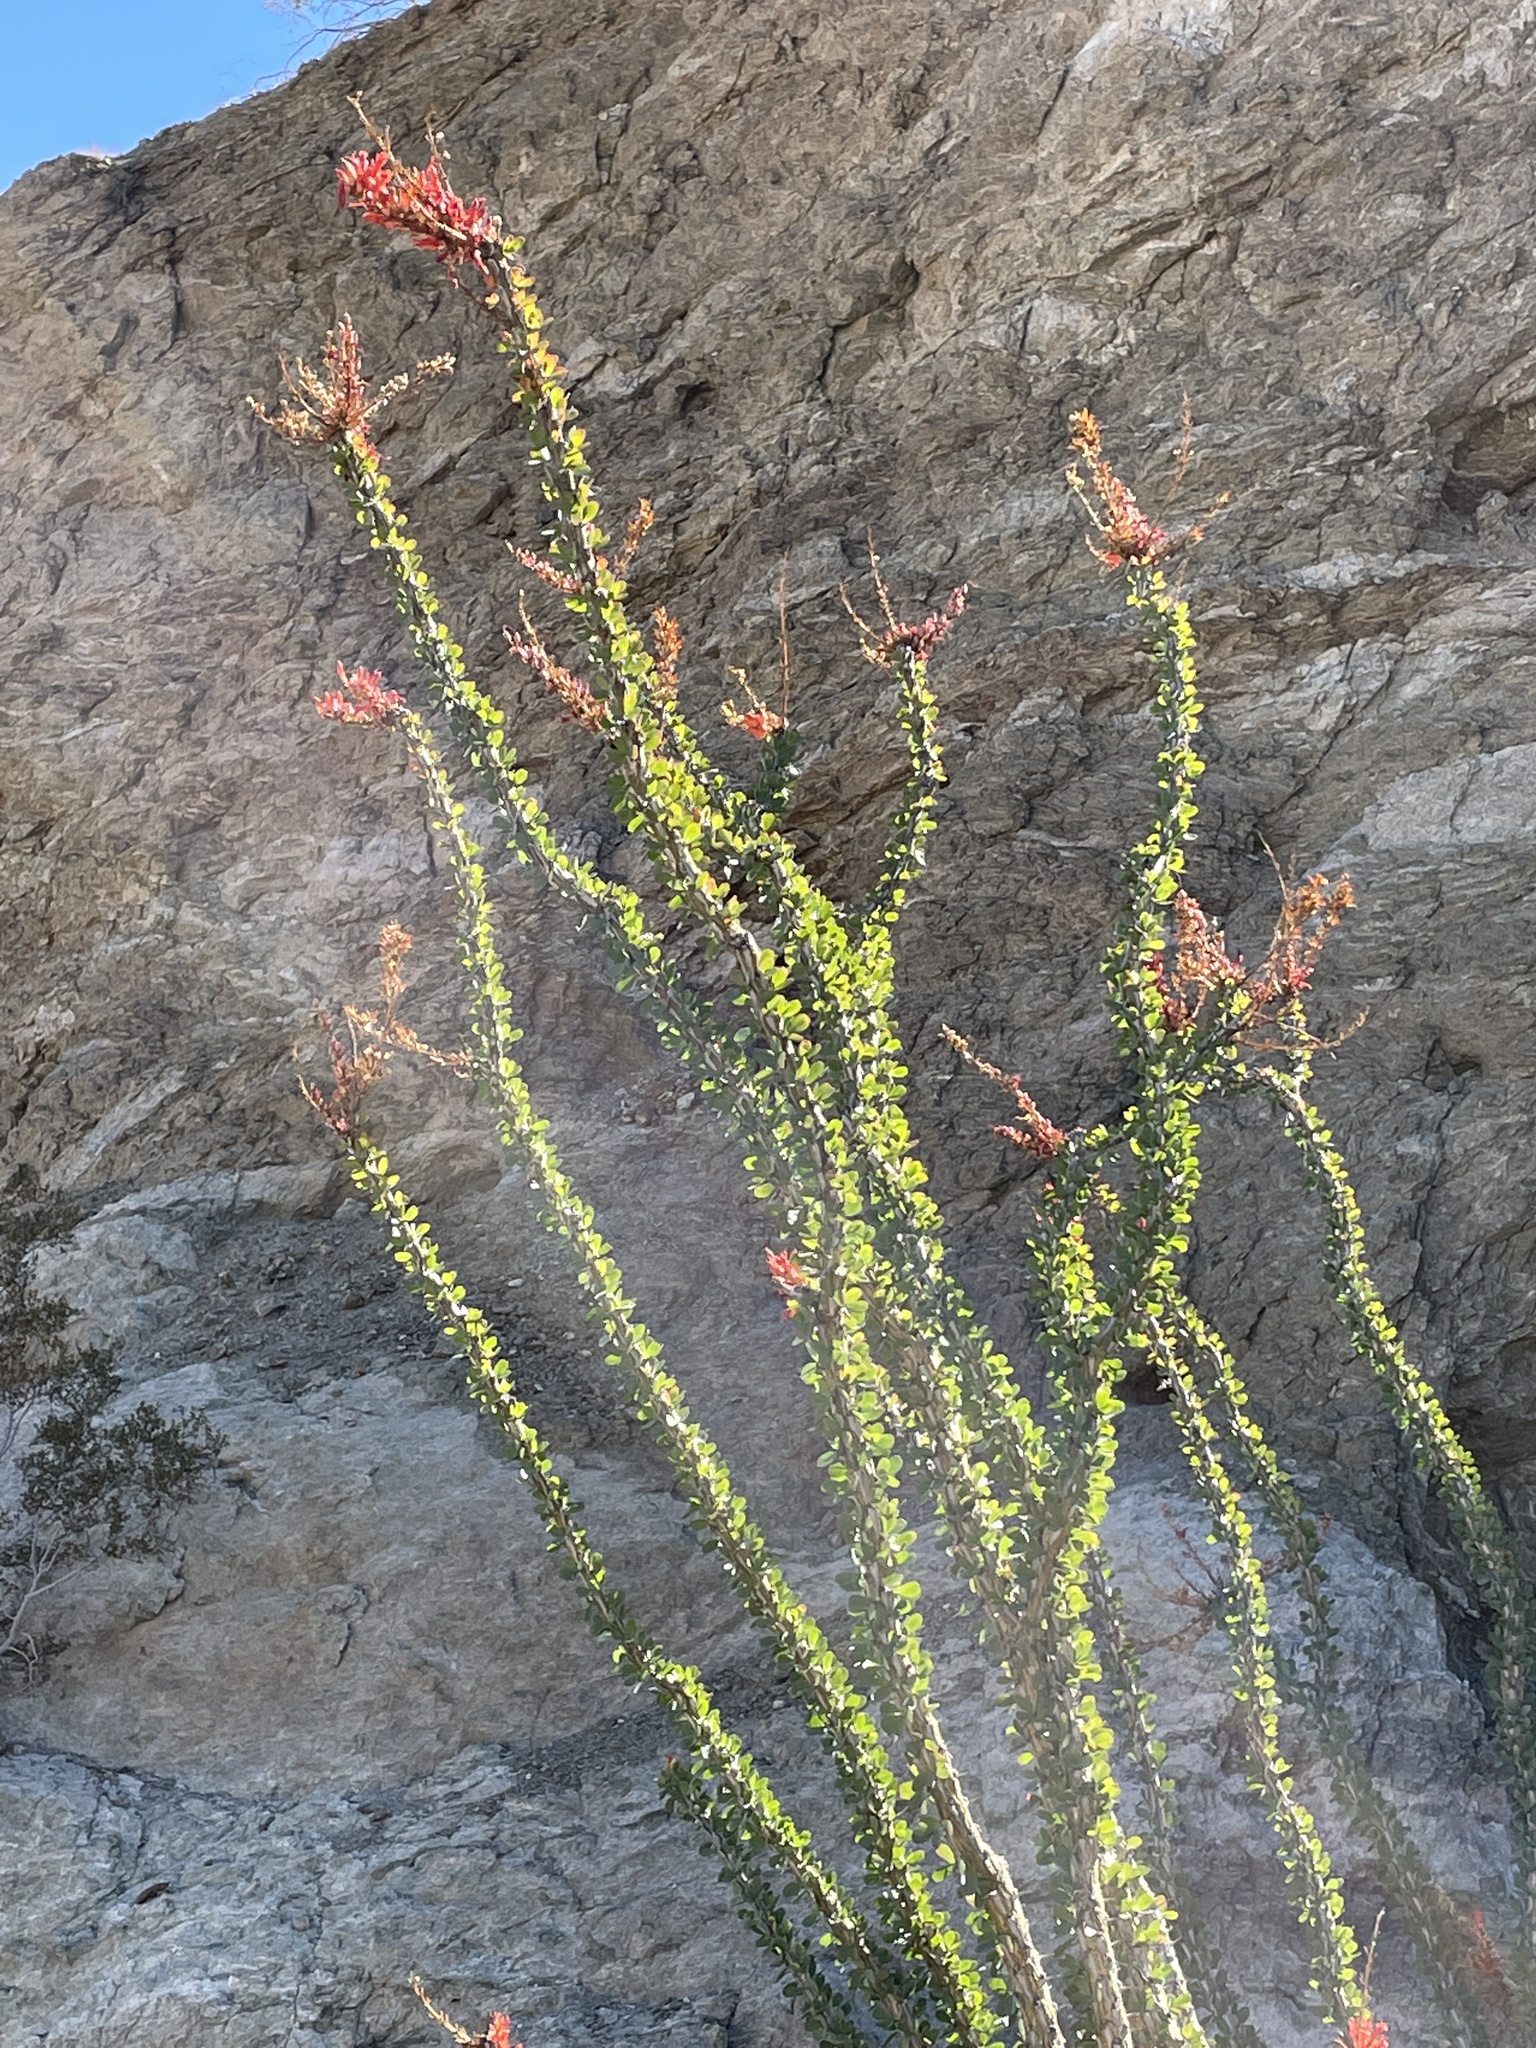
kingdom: Plantae
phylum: Tracheophyta
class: Magnoliopsida
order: Ericales
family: Fouquieriaceae
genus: Fouquieria
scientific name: Fouquieria splendens
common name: Vine-cactus
